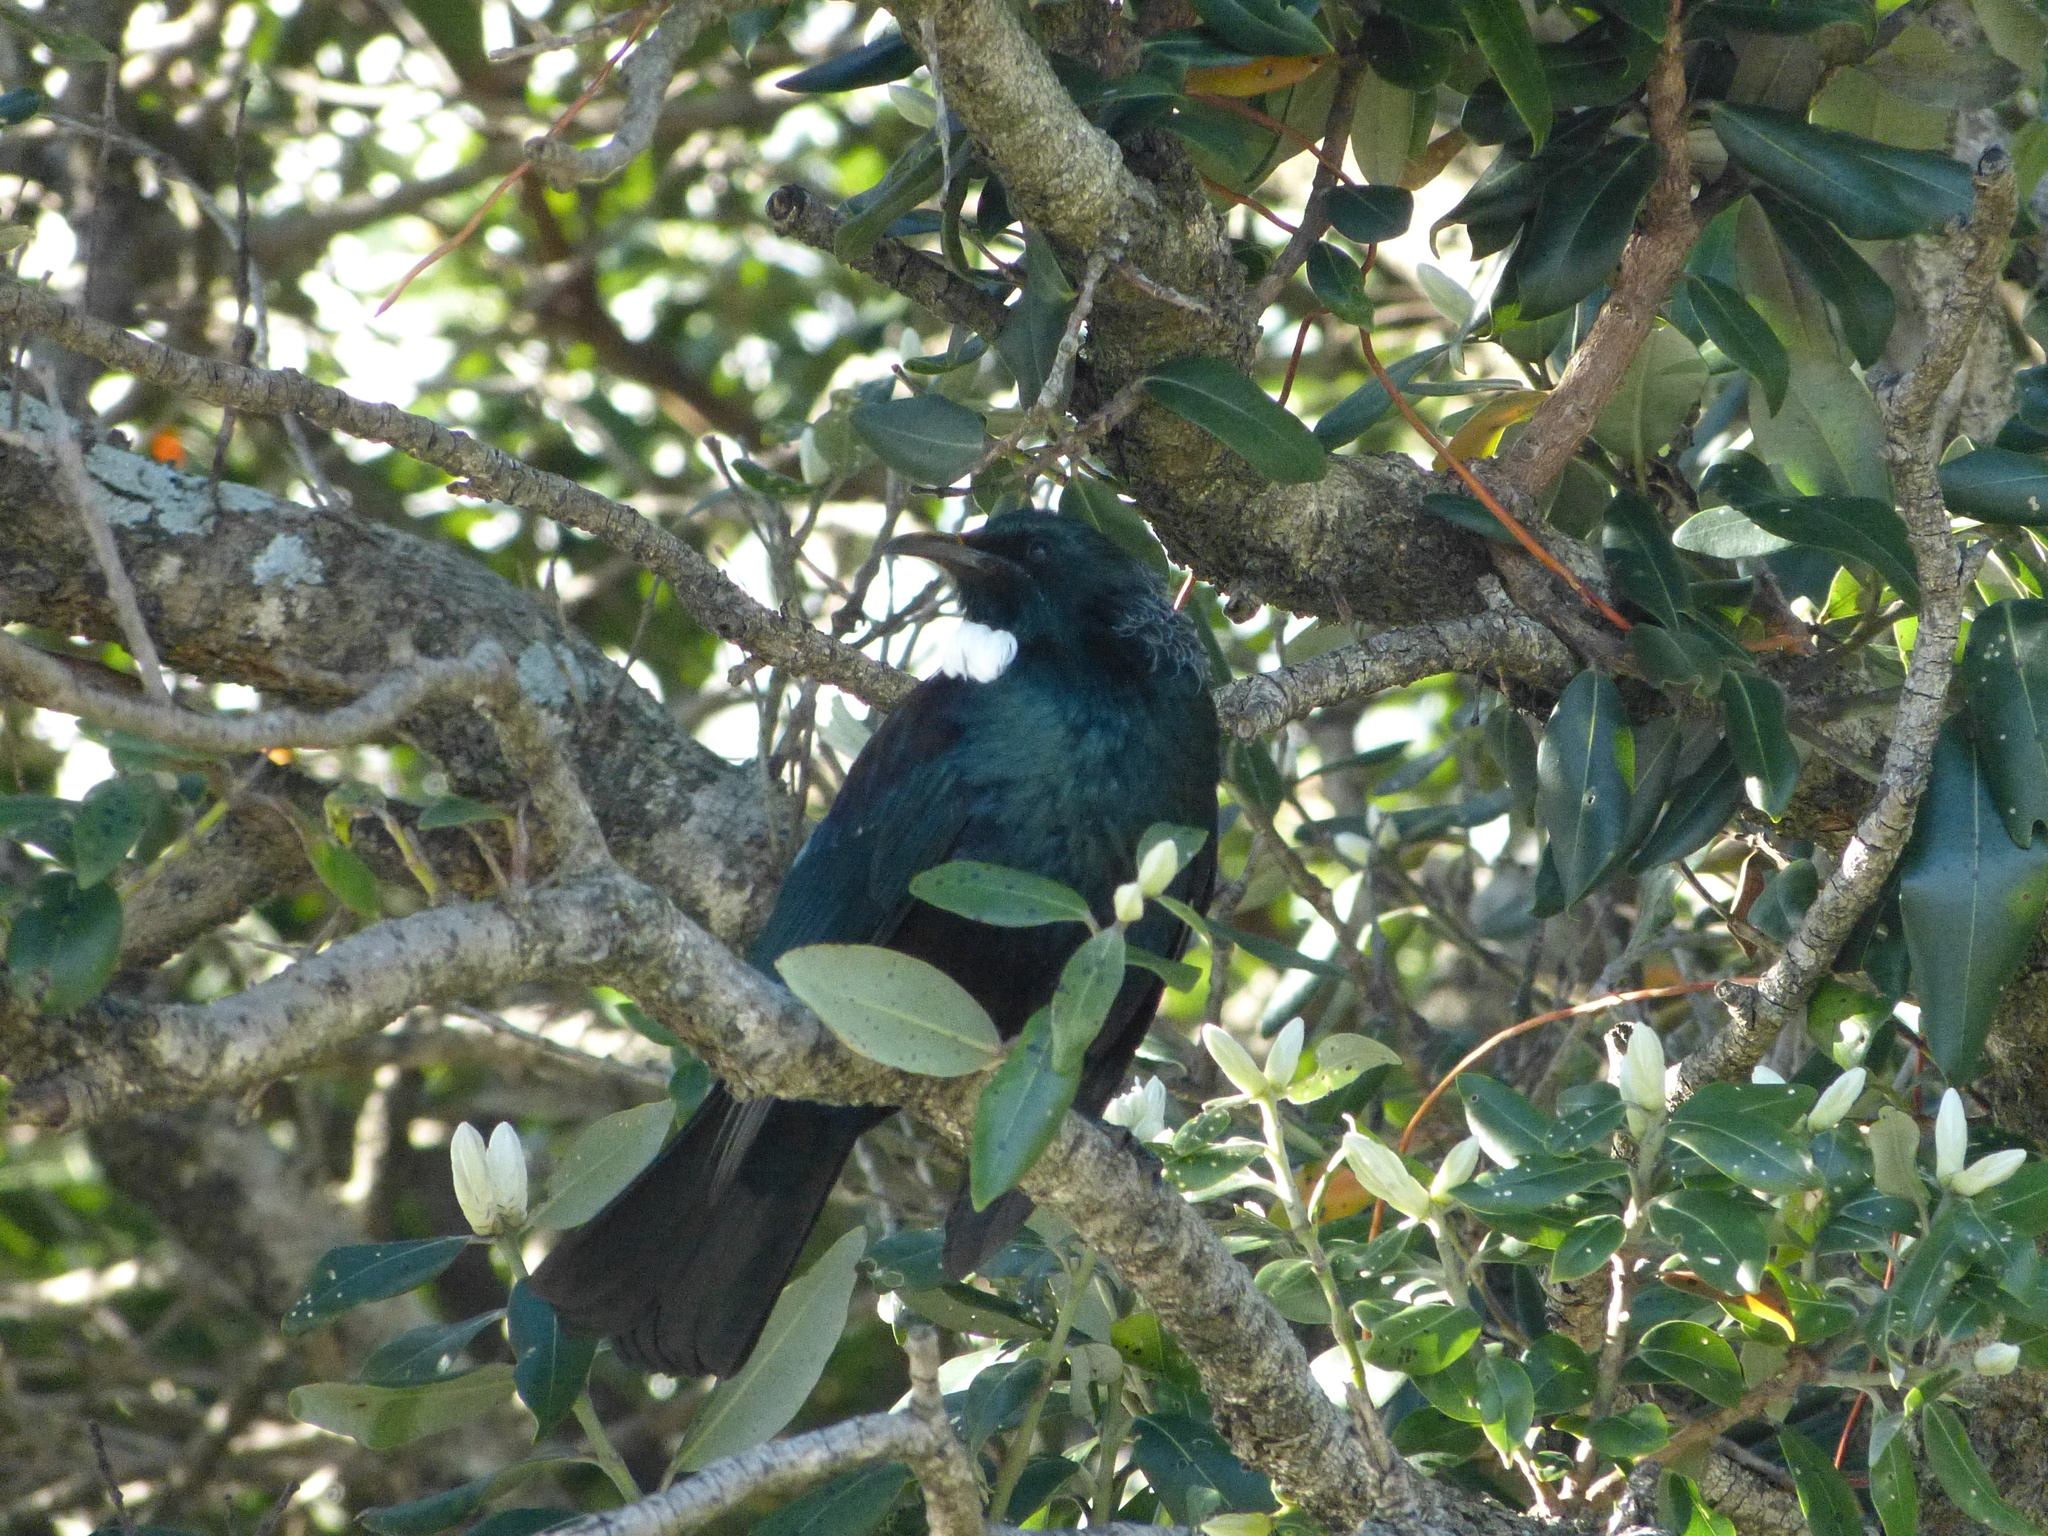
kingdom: Animalia
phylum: Chordata
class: Aves
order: Passeriformes
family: Meliphagidae
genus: Prosthemadera
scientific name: Prosthemadera novaeseelandiae
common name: Tui
